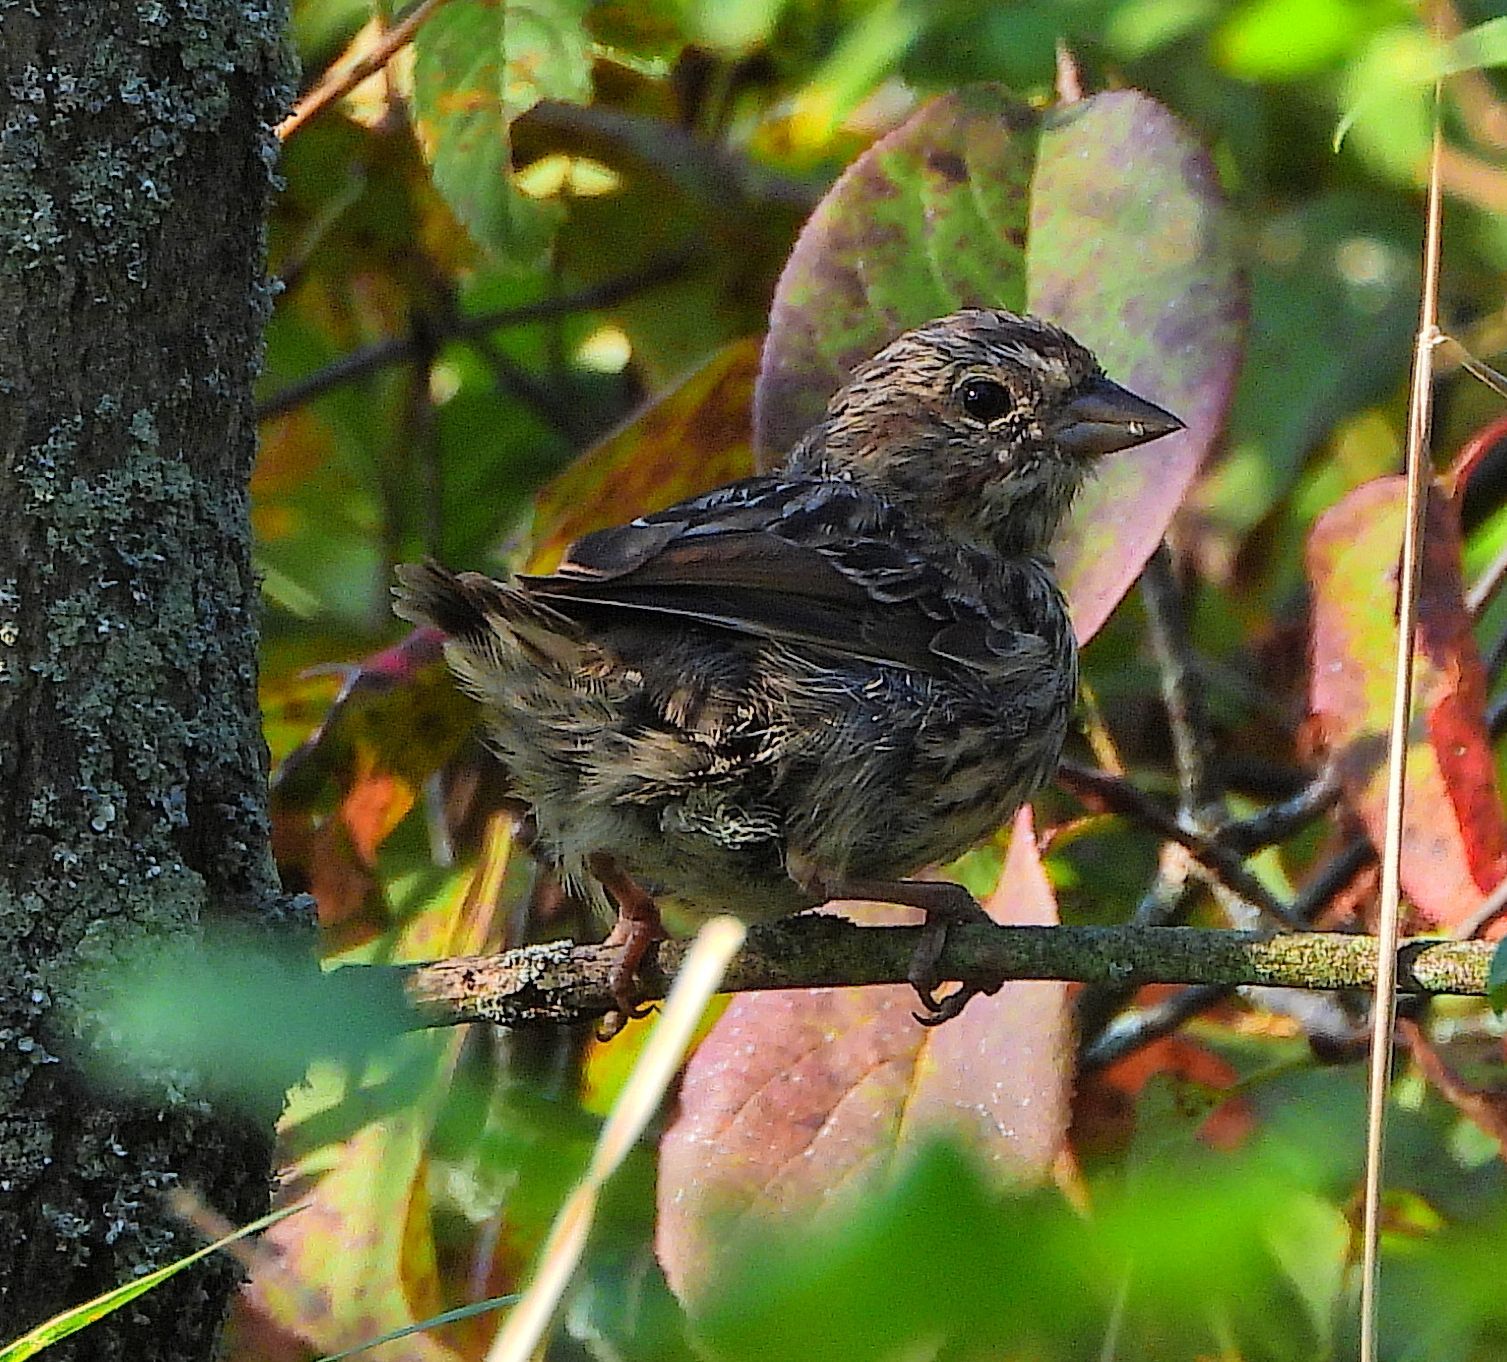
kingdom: Animalia
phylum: Chordata
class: Aves
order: Passeriformes
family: Passerellidae
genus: Melospiza
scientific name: Melospiza melodia
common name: Song sparrow
